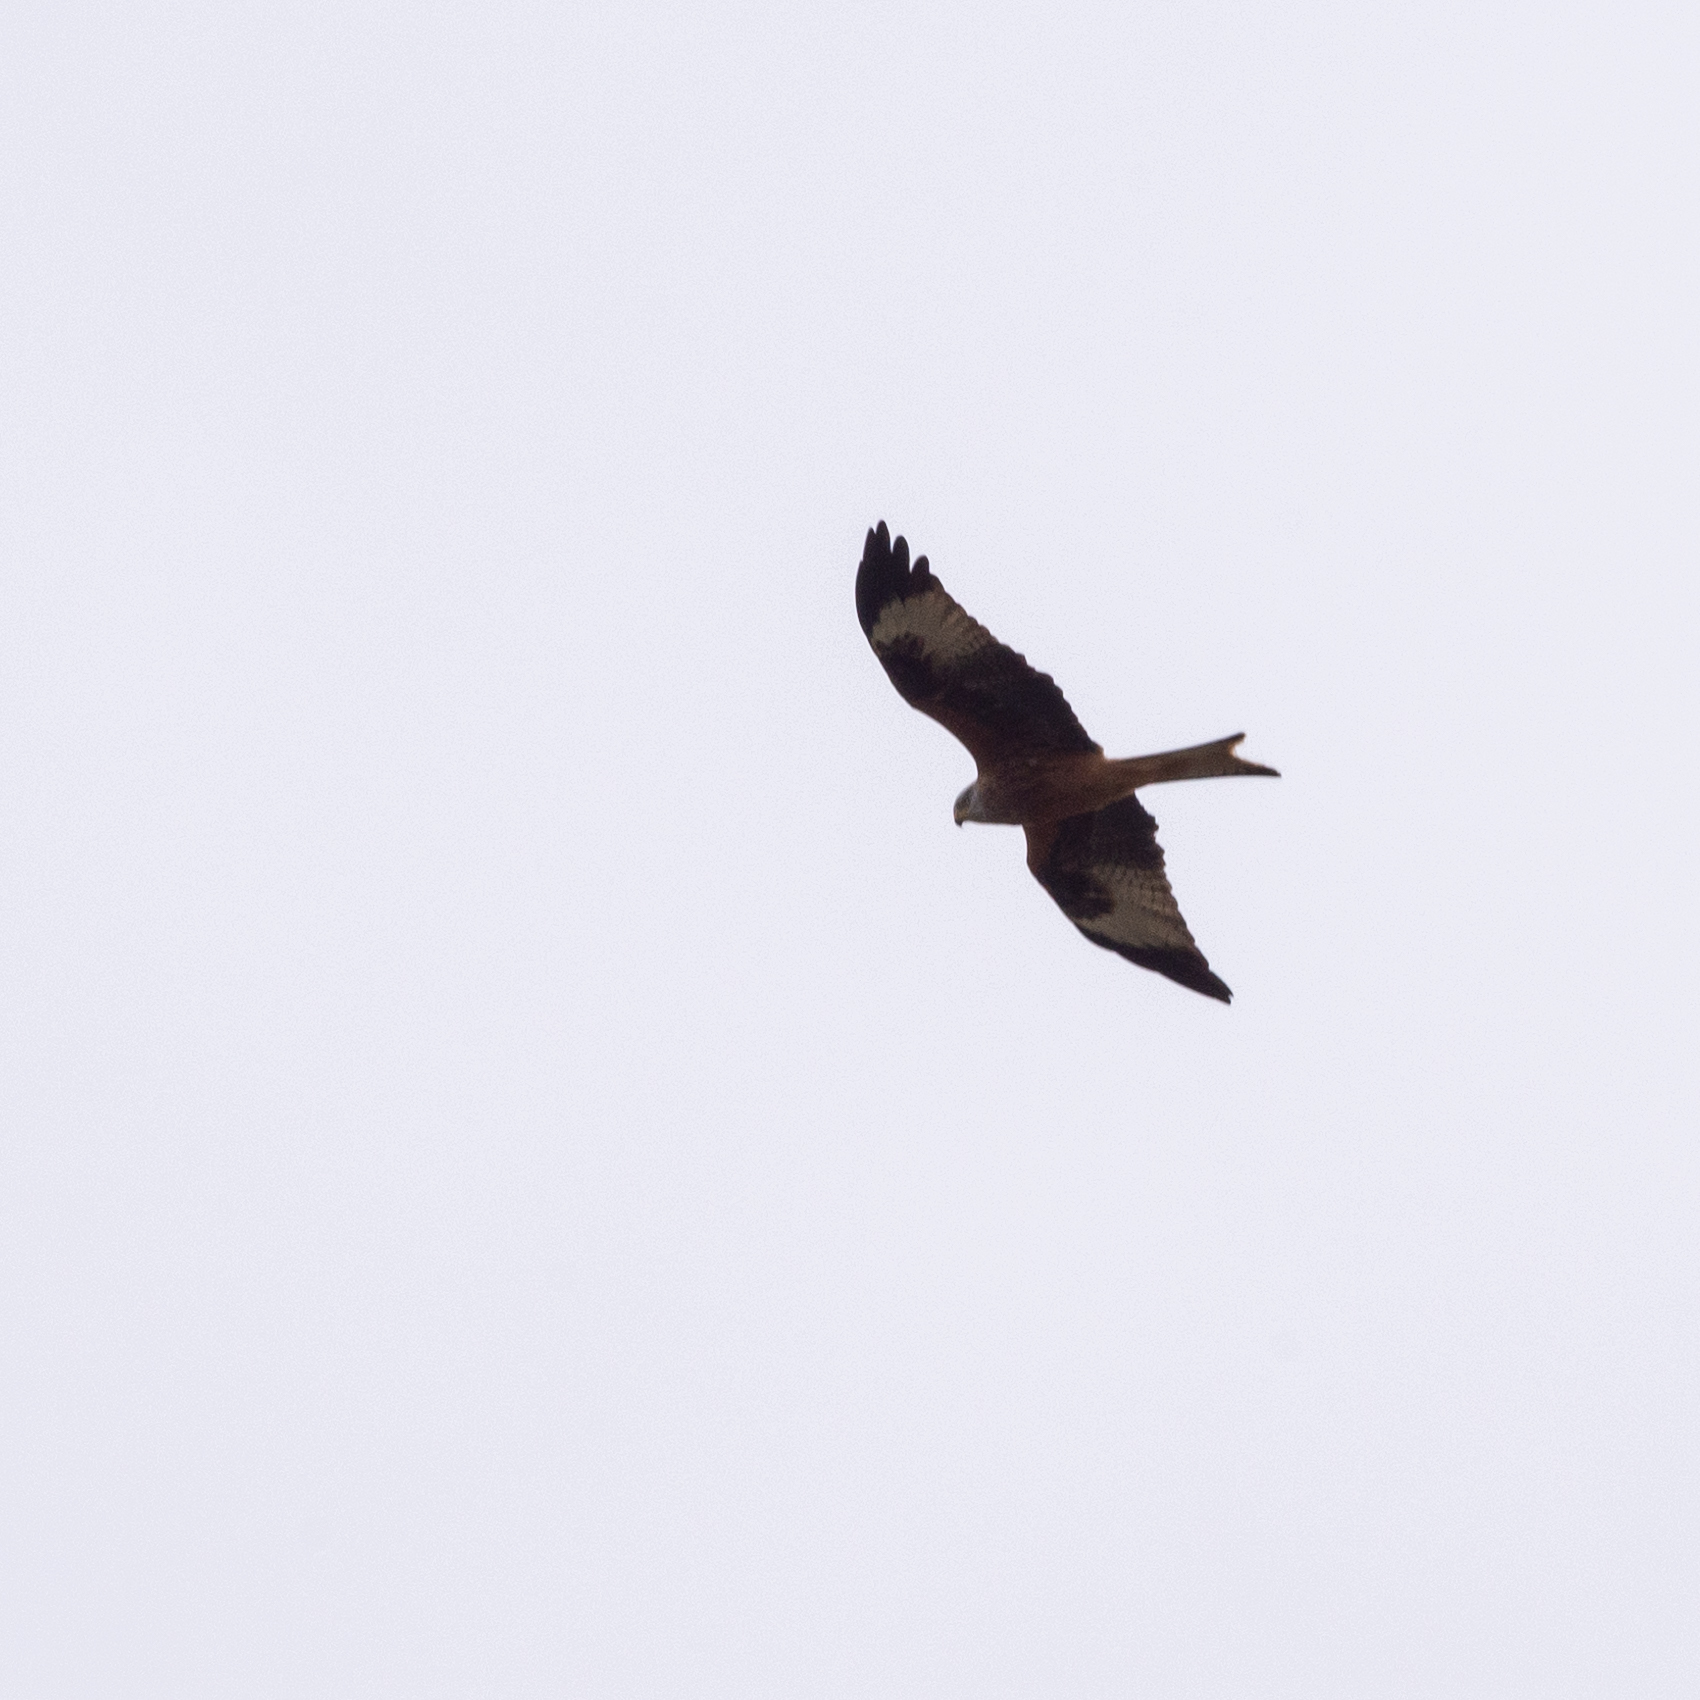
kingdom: Animalia
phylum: Chordata
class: Aves
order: Accipitriformes
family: Accipitridae
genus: Milvus
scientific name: Milvus milvus
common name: Red kite
